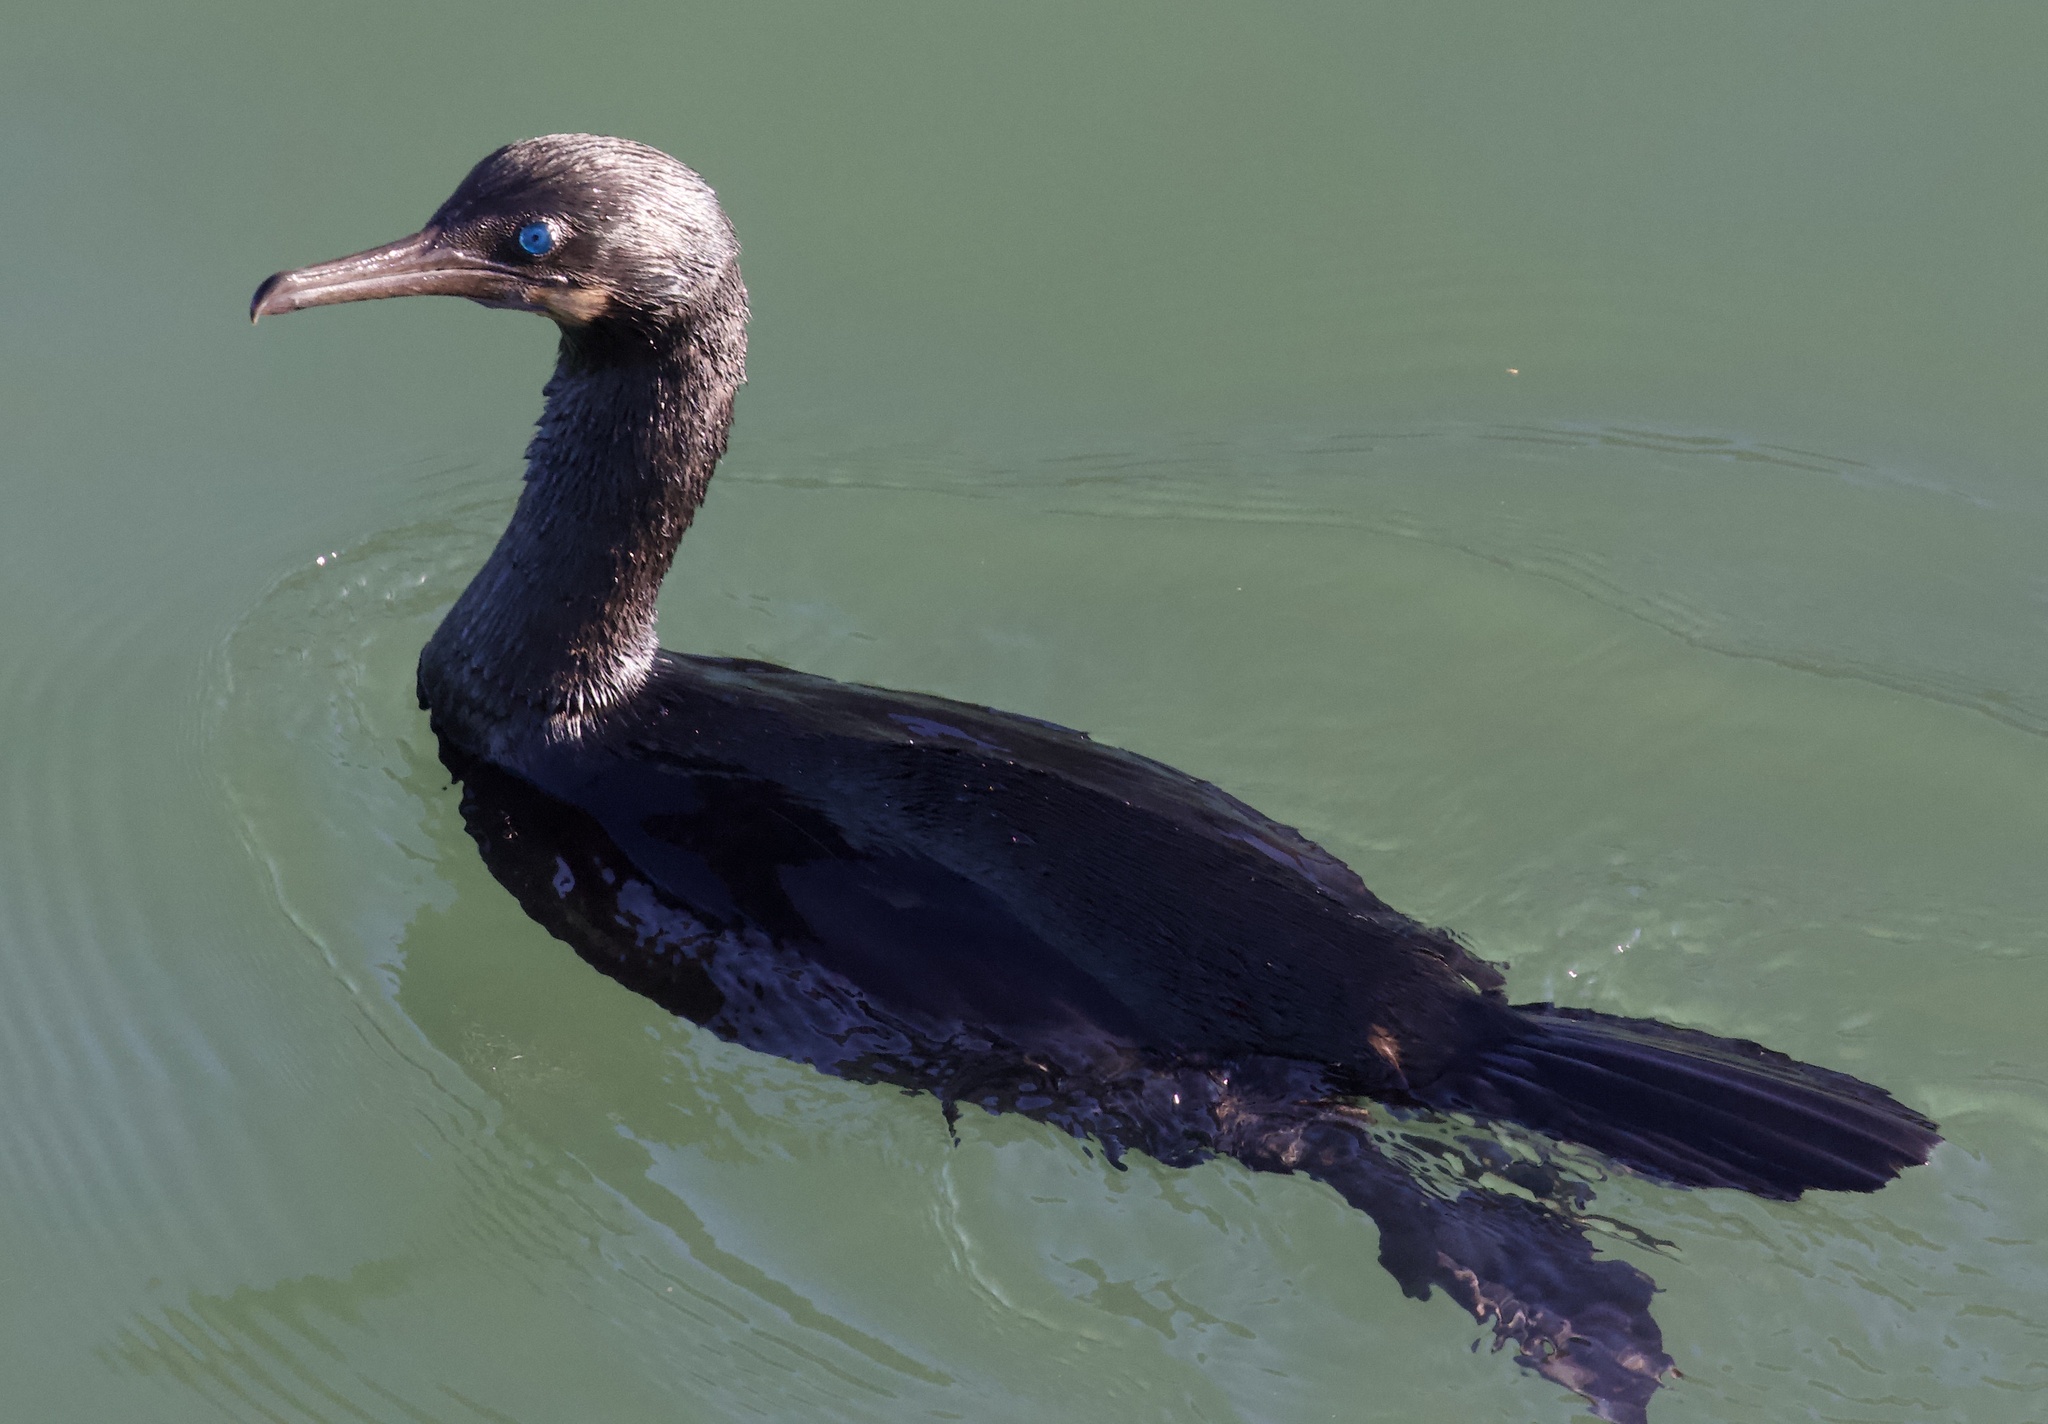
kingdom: Animalia
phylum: Chordata
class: Aves
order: Suliformes
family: Phalacrocoracidae
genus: Urile
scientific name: Urile penicillatus
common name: Brandt's cormorant
